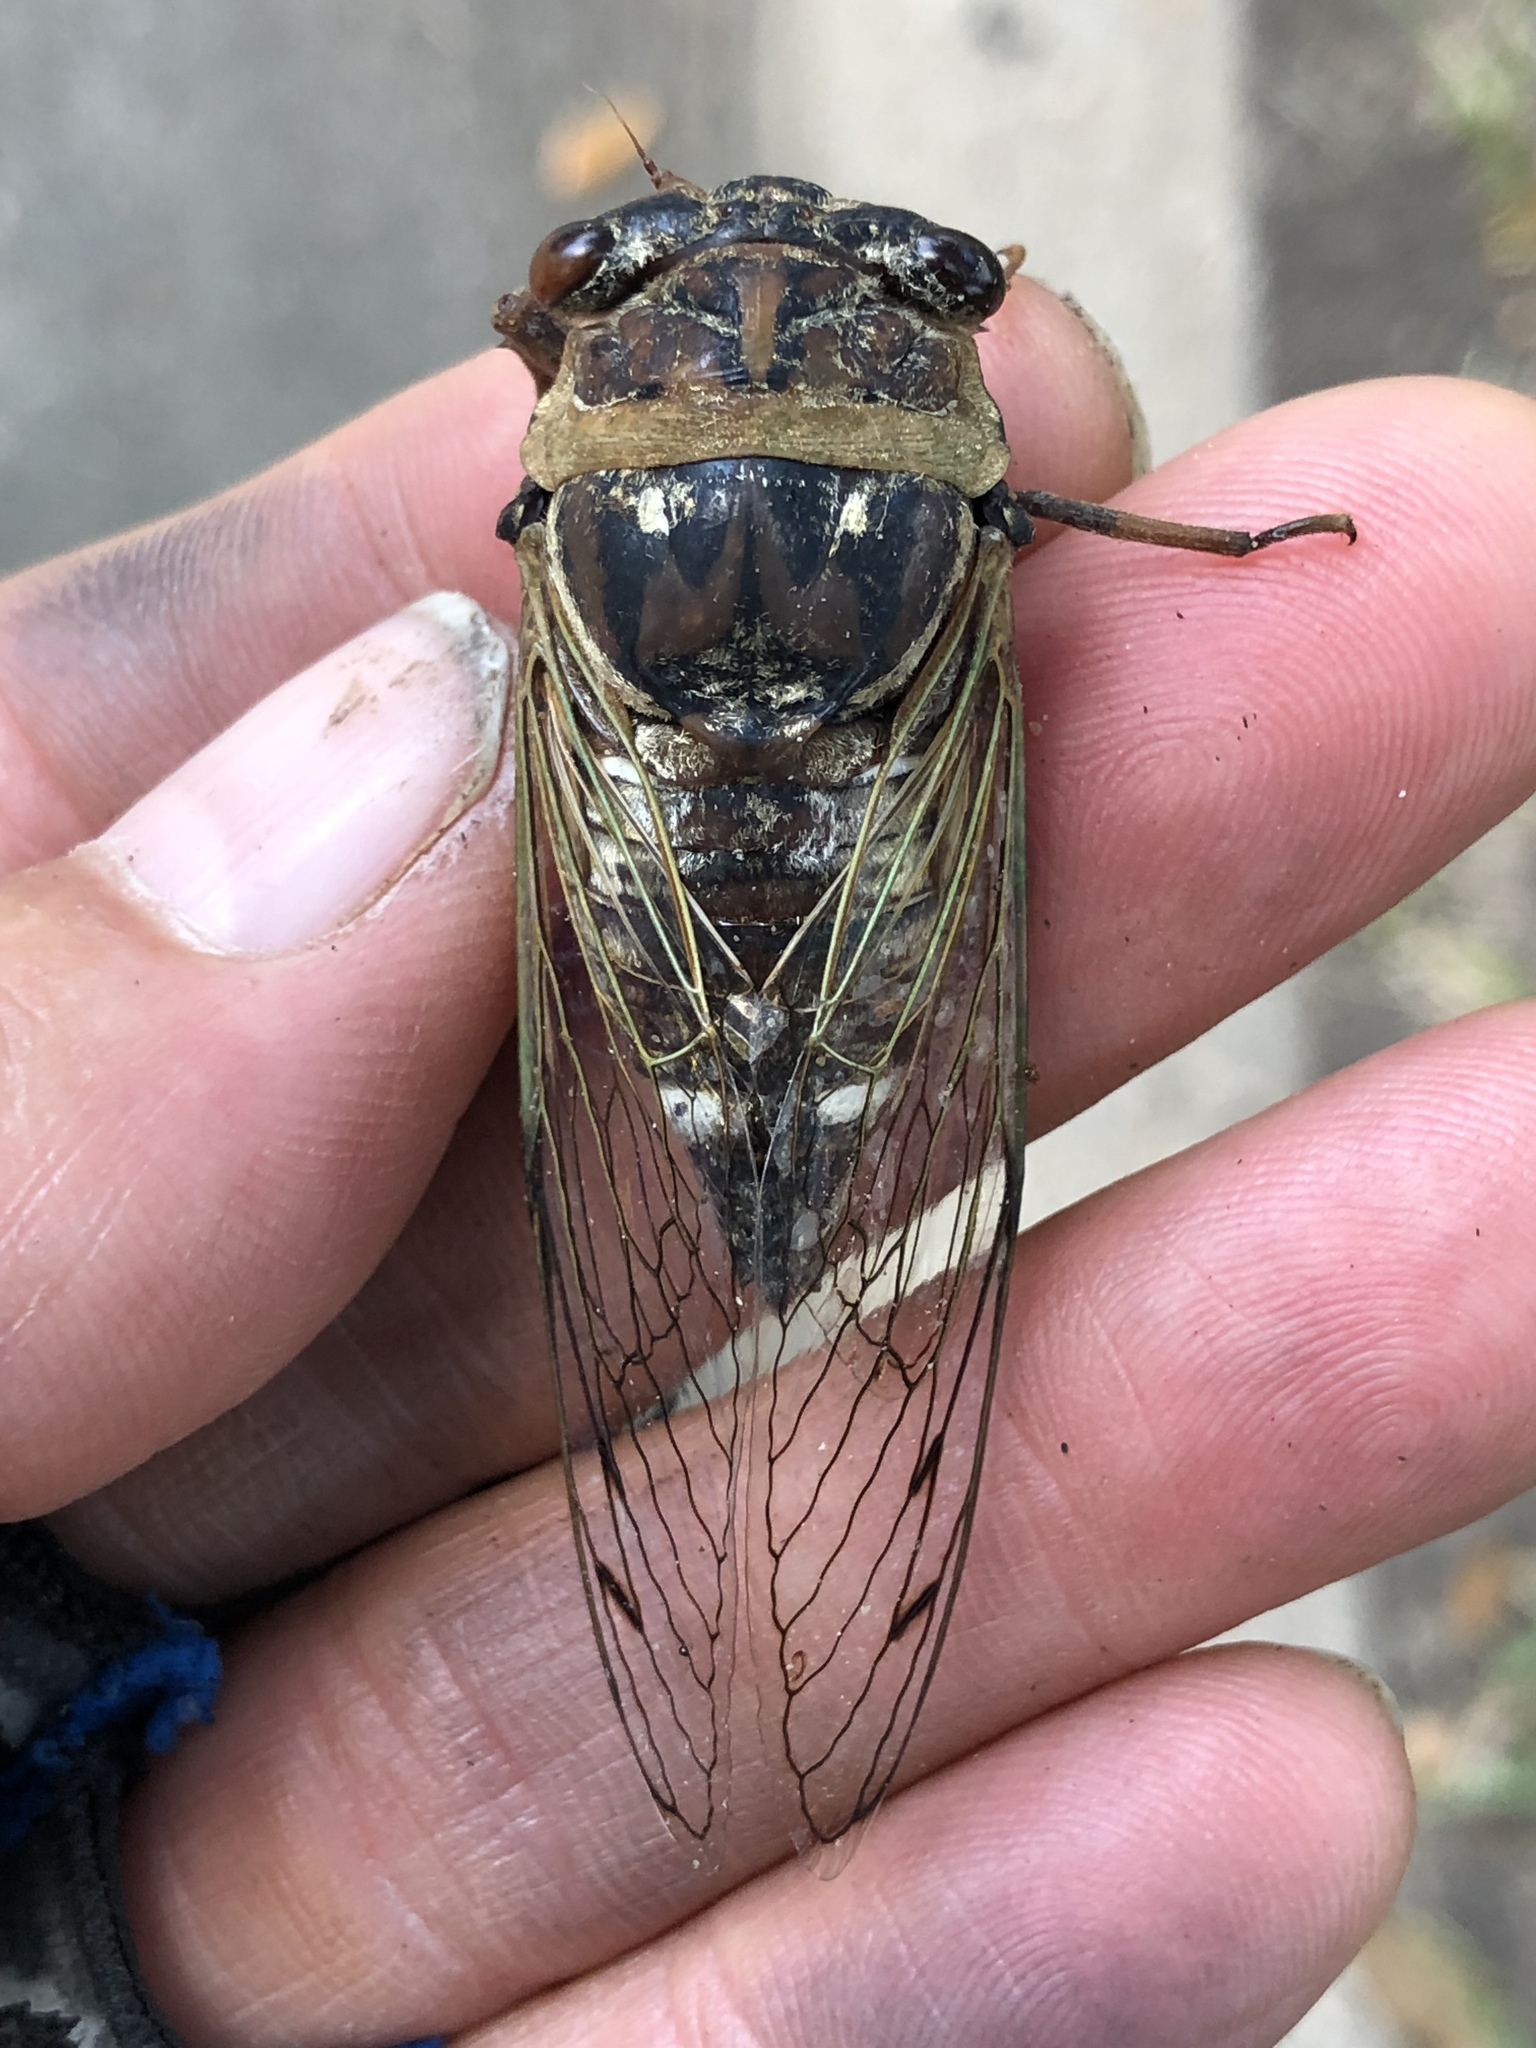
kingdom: Animalia
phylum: Arthropoda
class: Insecta
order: Hemiptera
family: Cicadidae
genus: Megatibicen
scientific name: Megatibicen resh
